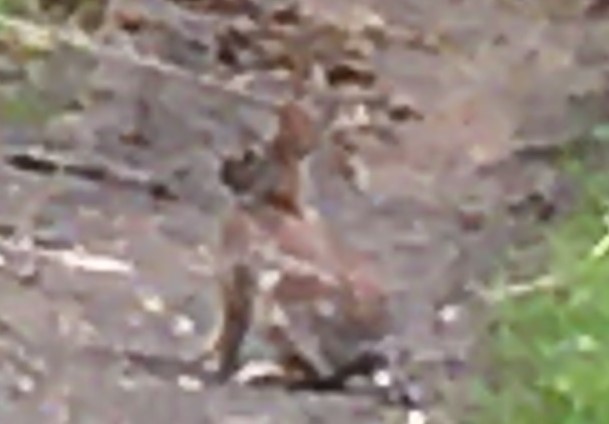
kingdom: Animalia
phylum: Chordata
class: Mammalia
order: Lagomorpha
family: Leporidae
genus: Sylvilagus
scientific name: Sylvilagus floridanus
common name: Eastern cottontail
